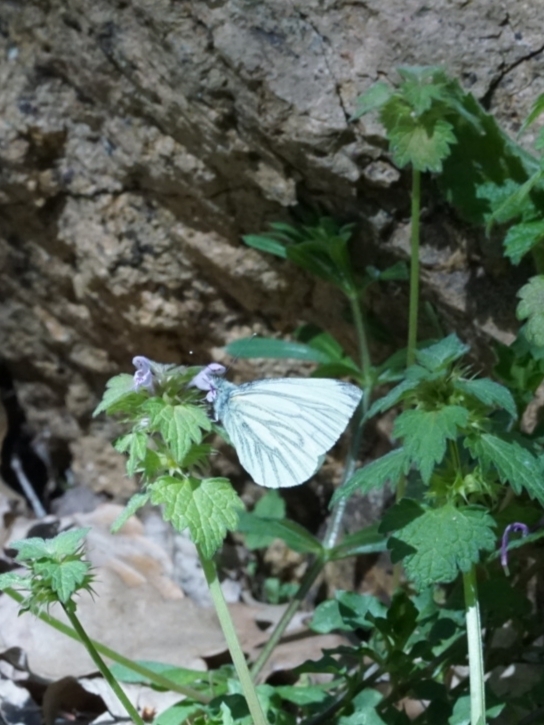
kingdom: Animalia
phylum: Arthropoda
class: Insecta
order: Lepidoptera
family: Pieridae
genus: Pieris
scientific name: Pieris napi
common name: Green-veined white
